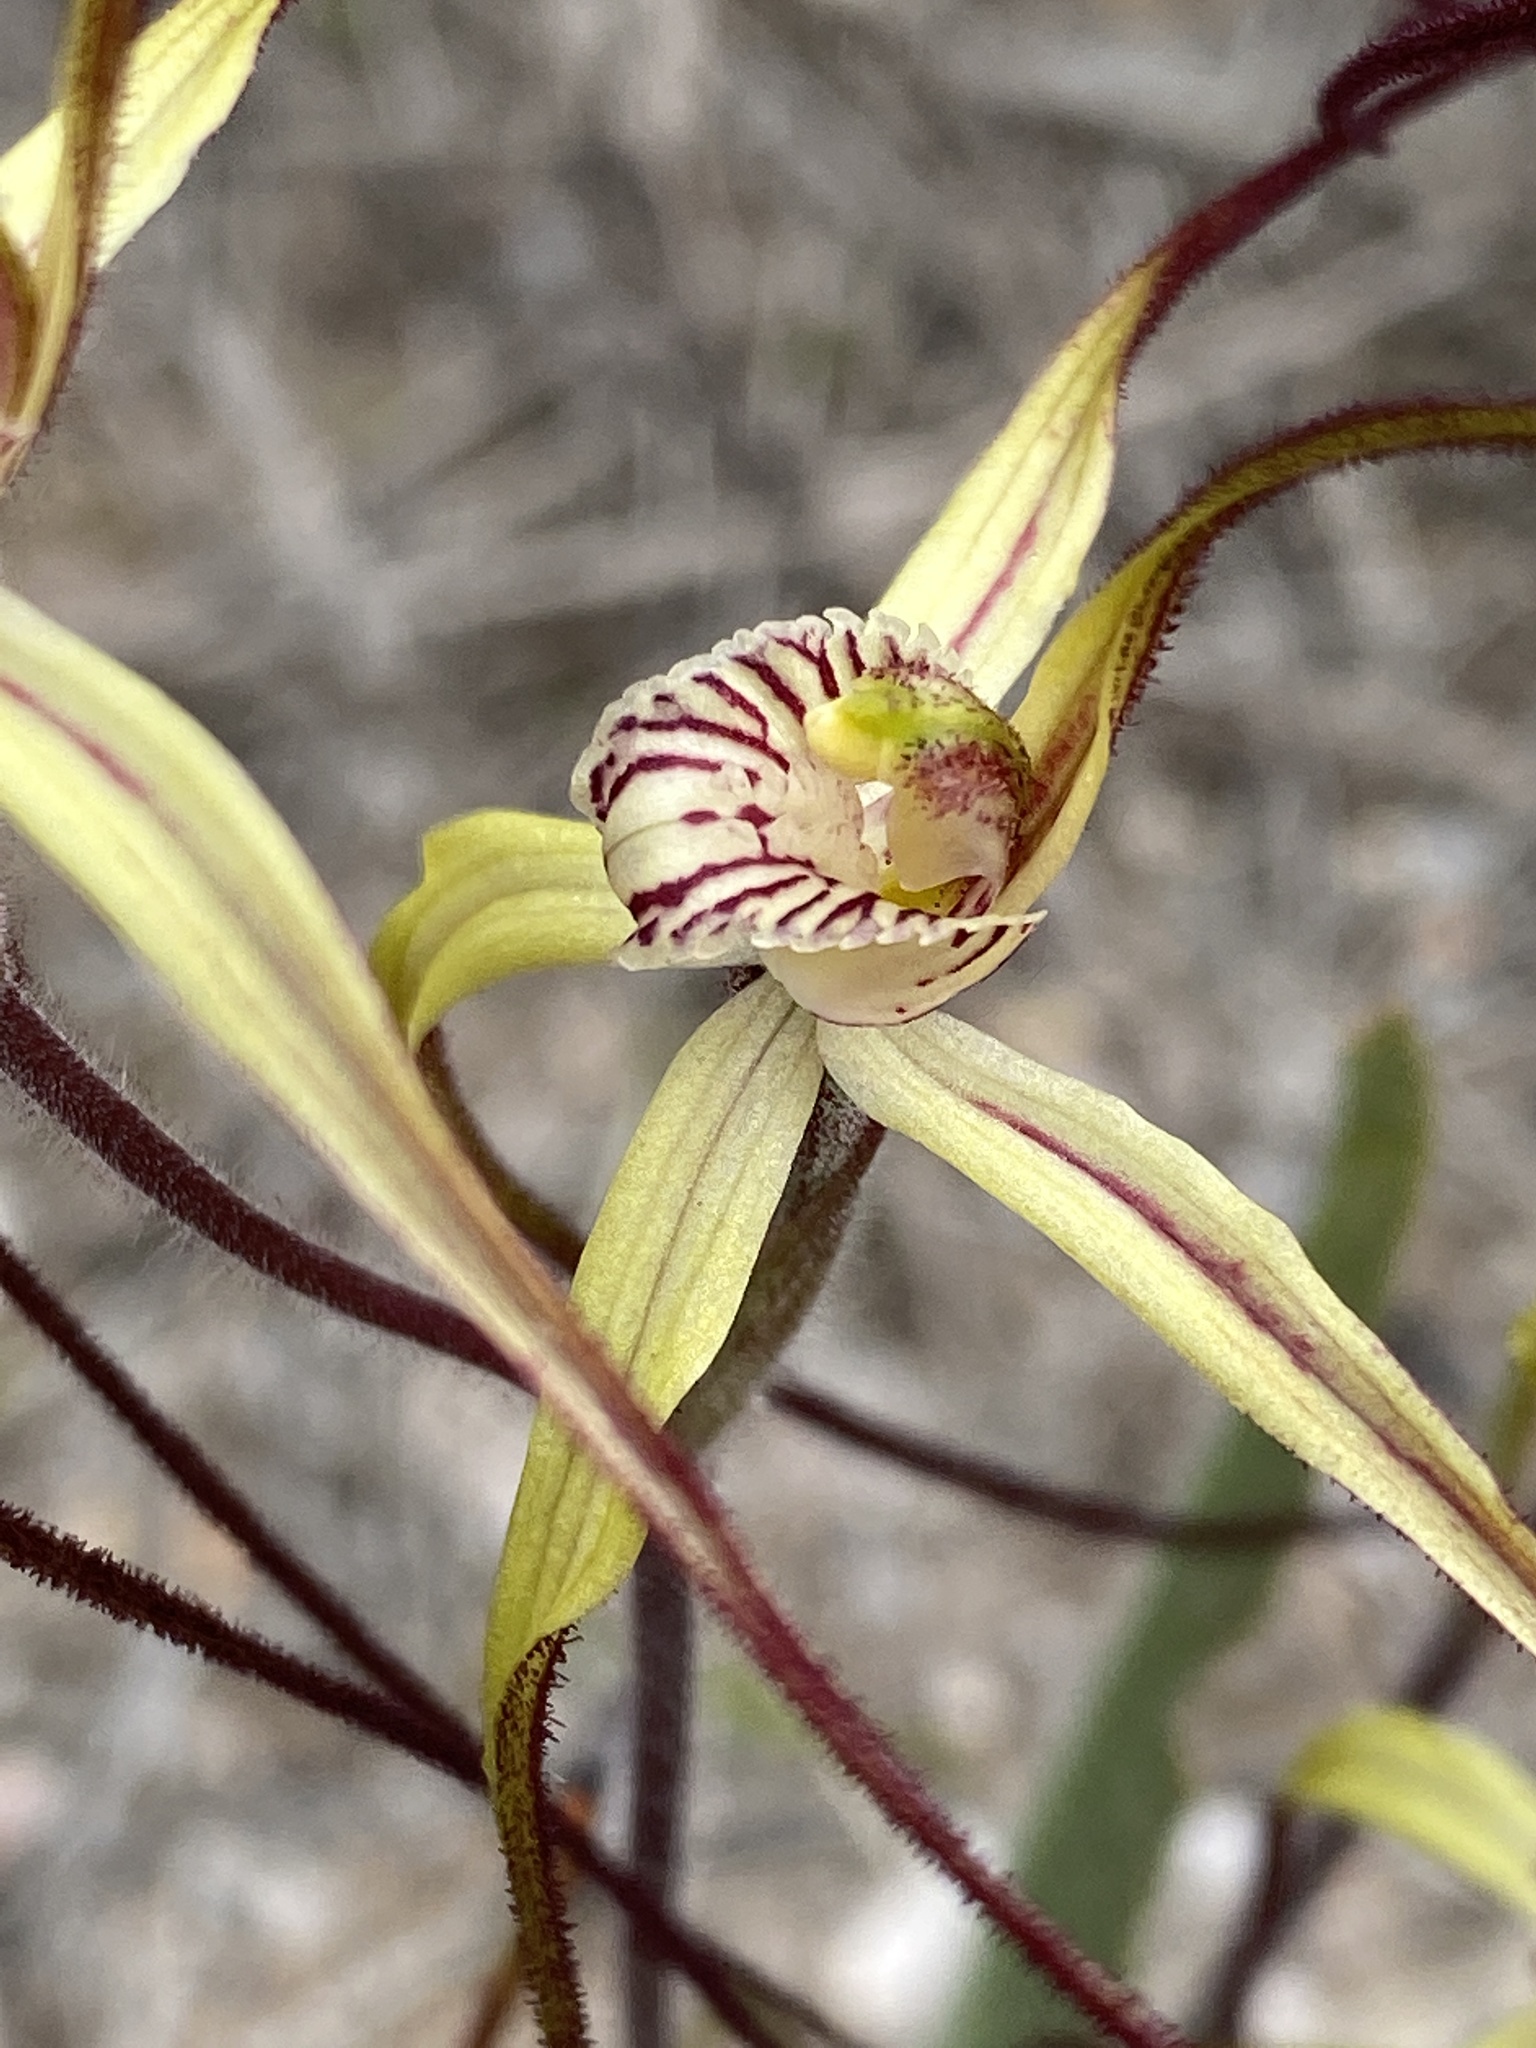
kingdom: Plantae
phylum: Tracheophyta
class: Liliopsida
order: Asparagales
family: Orchidaceae
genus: Caladenia
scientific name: Caladenia dimidia
